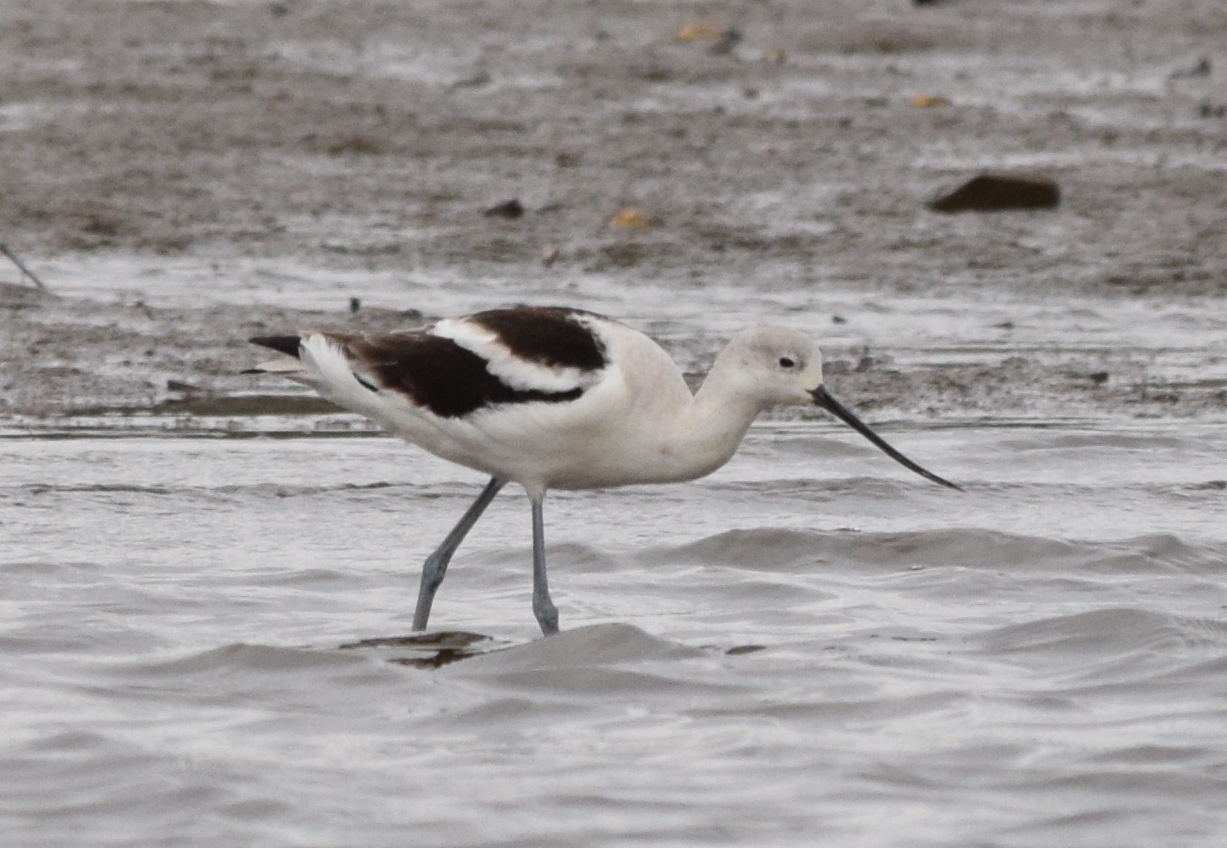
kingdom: Animalia
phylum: Chordata
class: Aves
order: Charadriiformes
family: Recurvirostridae
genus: Recurvirostra
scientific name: Recurvirostra americana
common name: American avocet
